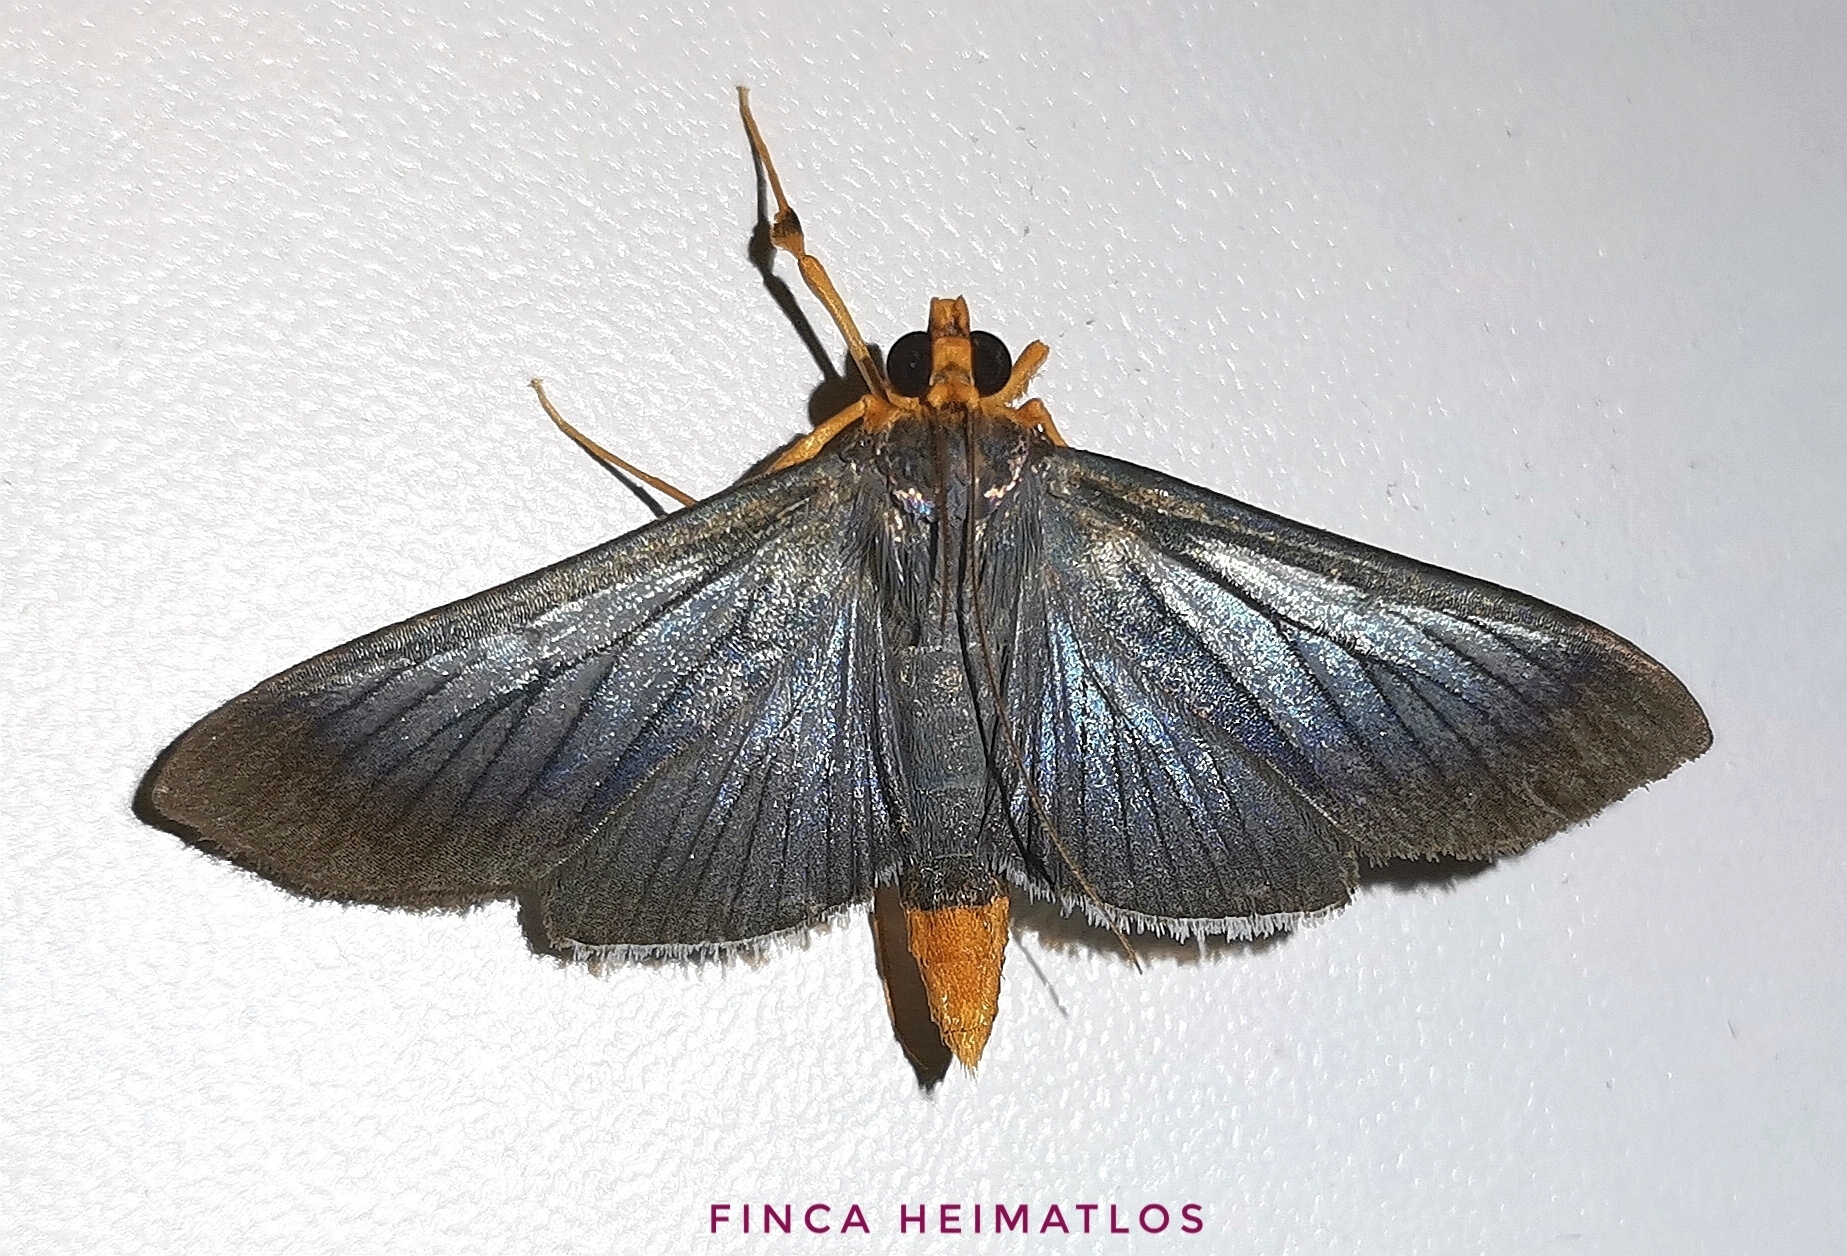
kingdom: Animalia
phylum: Arthropoda
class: Insecta
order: Lepidoptera
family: Crambidae
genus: Omiodes
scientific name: Omiodes fulvicauda
